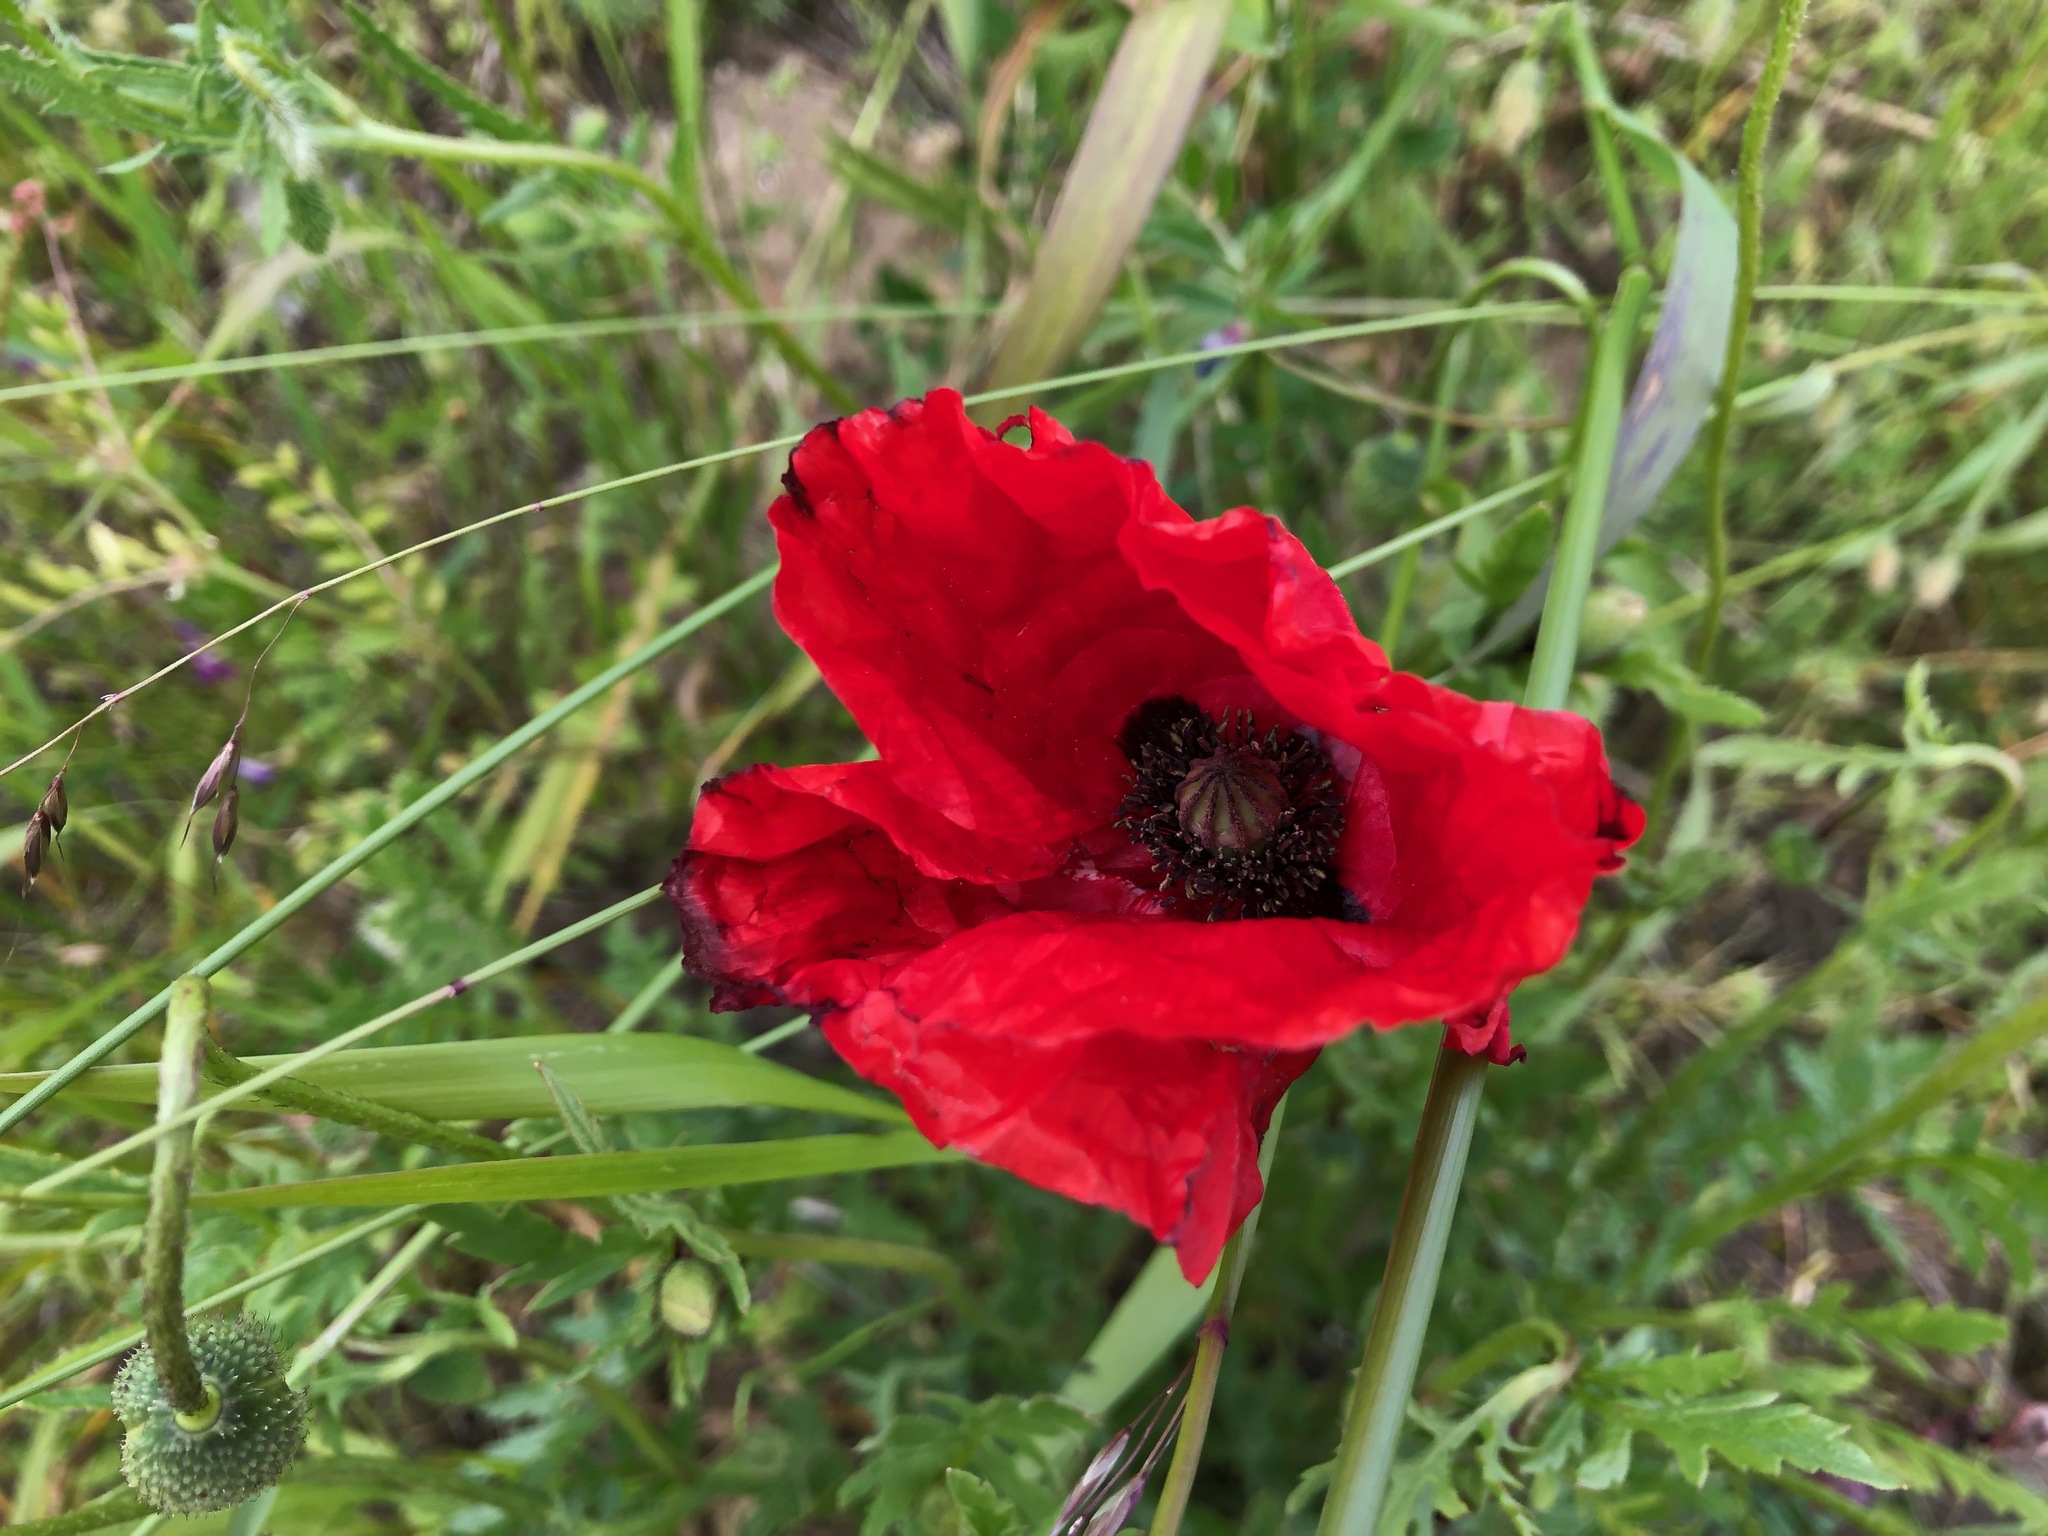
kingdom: Plantae
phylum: Tracheophyta
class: Magnoliopsida
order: Ranunculales
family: Papaveraceae
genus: Papaver
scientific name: Papaver rhoeas
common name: Corn poppy
